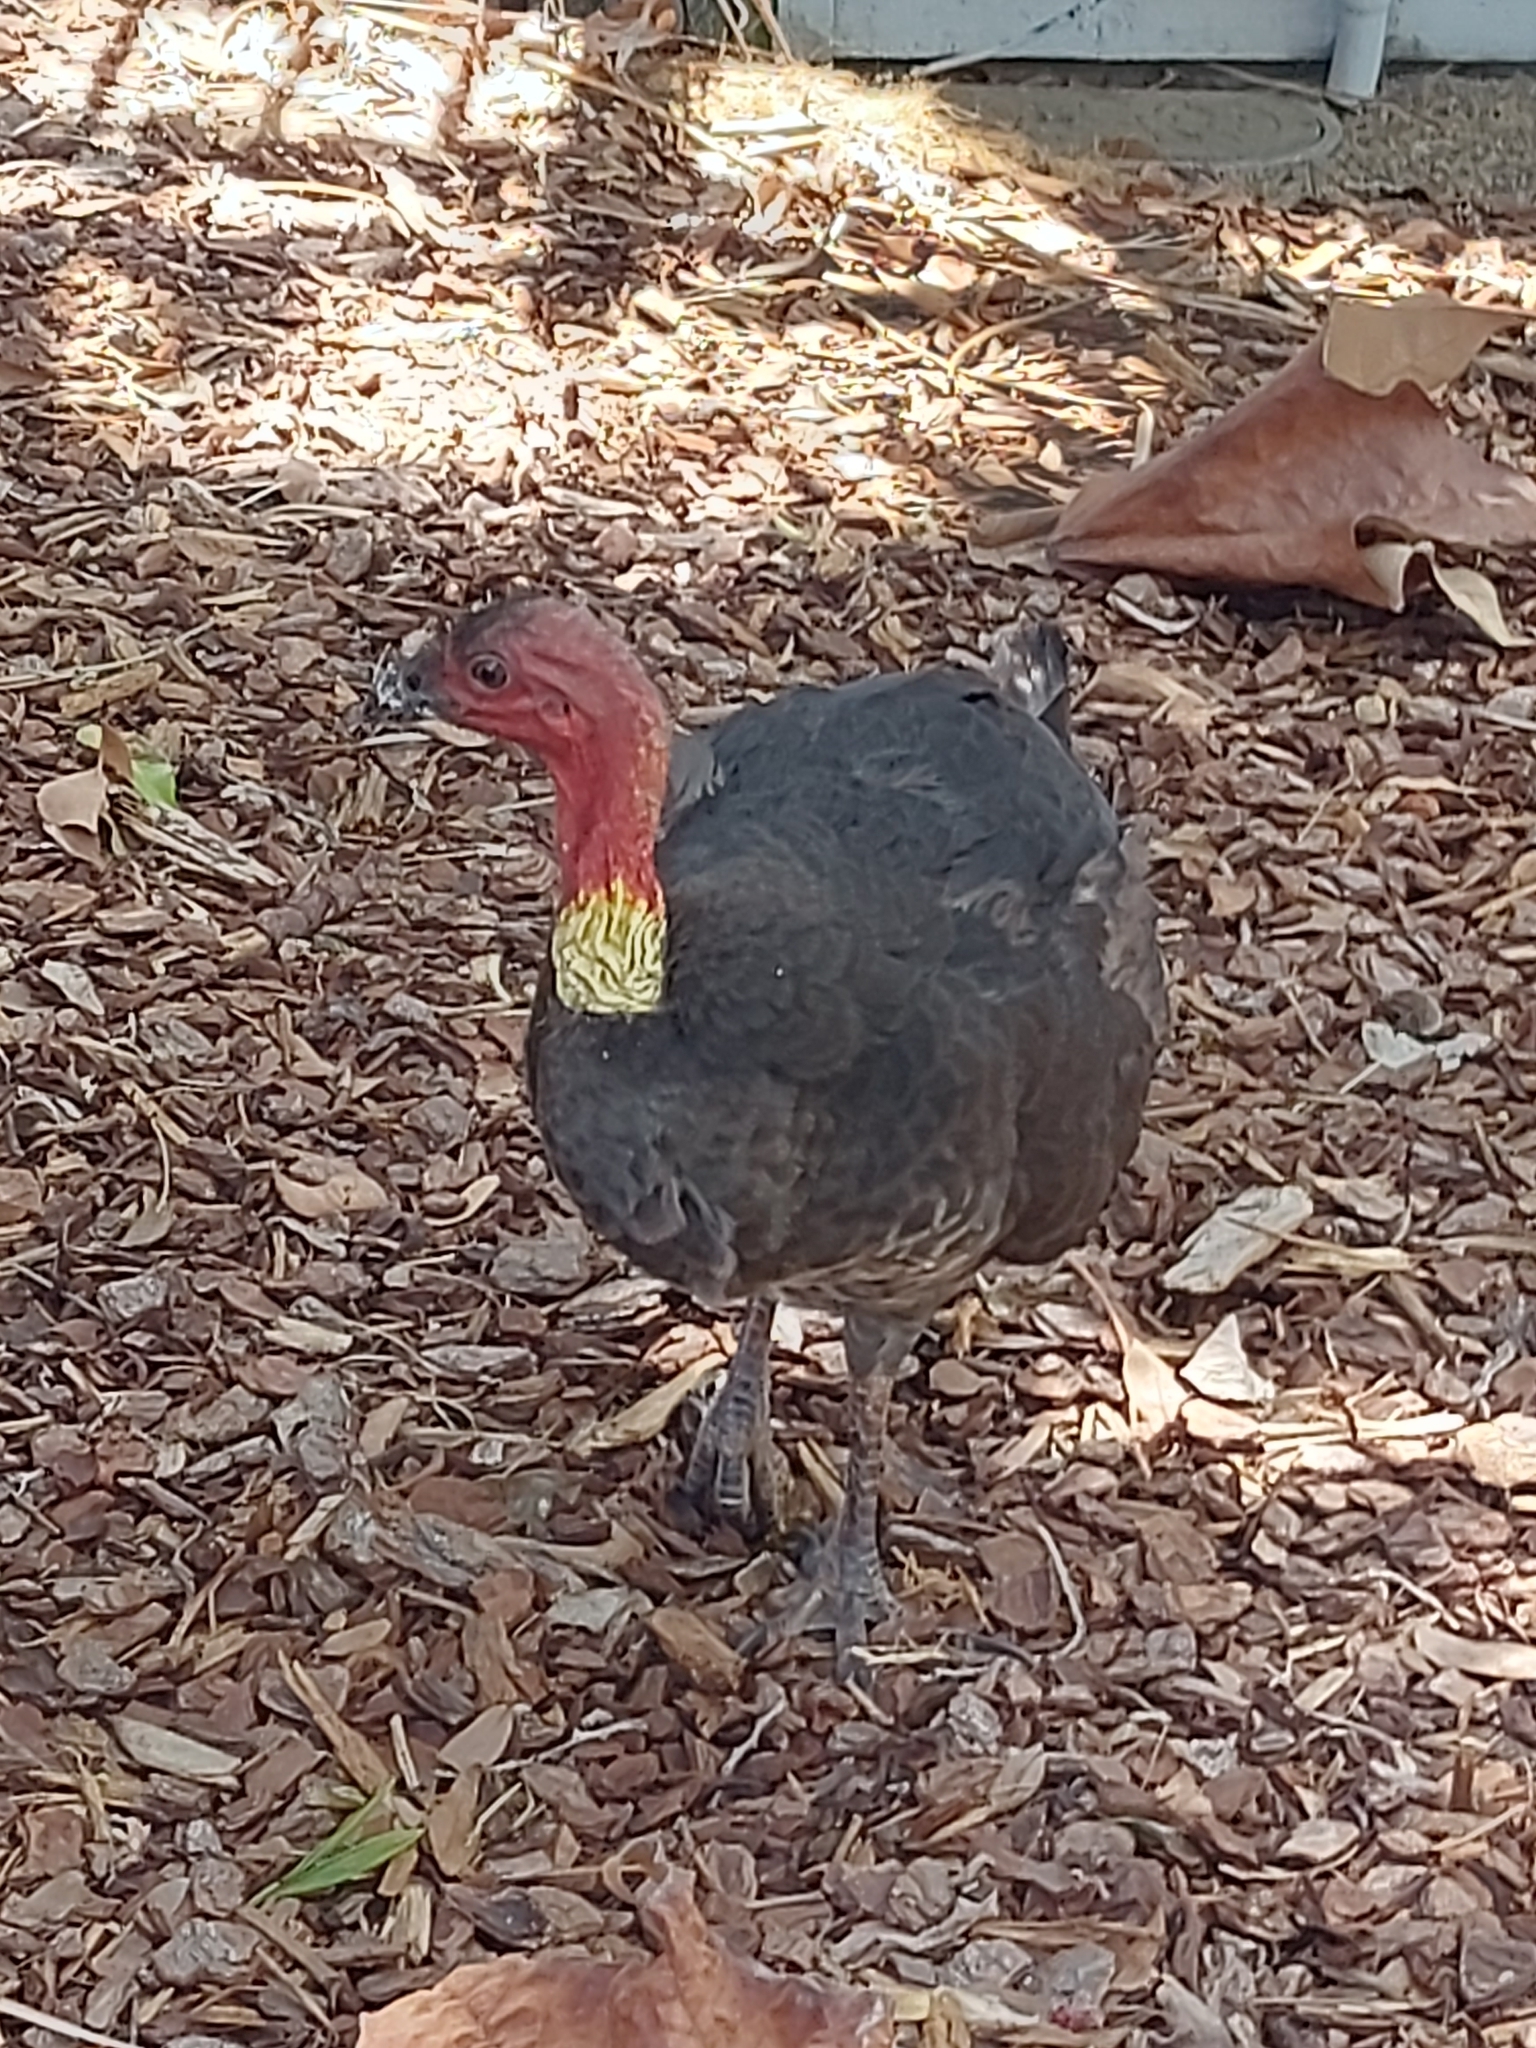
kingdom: Animalia
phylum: Chordata
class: Aves
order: Galliformes
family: Megapodiidae
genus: Alectura
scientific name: Alectura lathami
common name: Australian brushturkey
